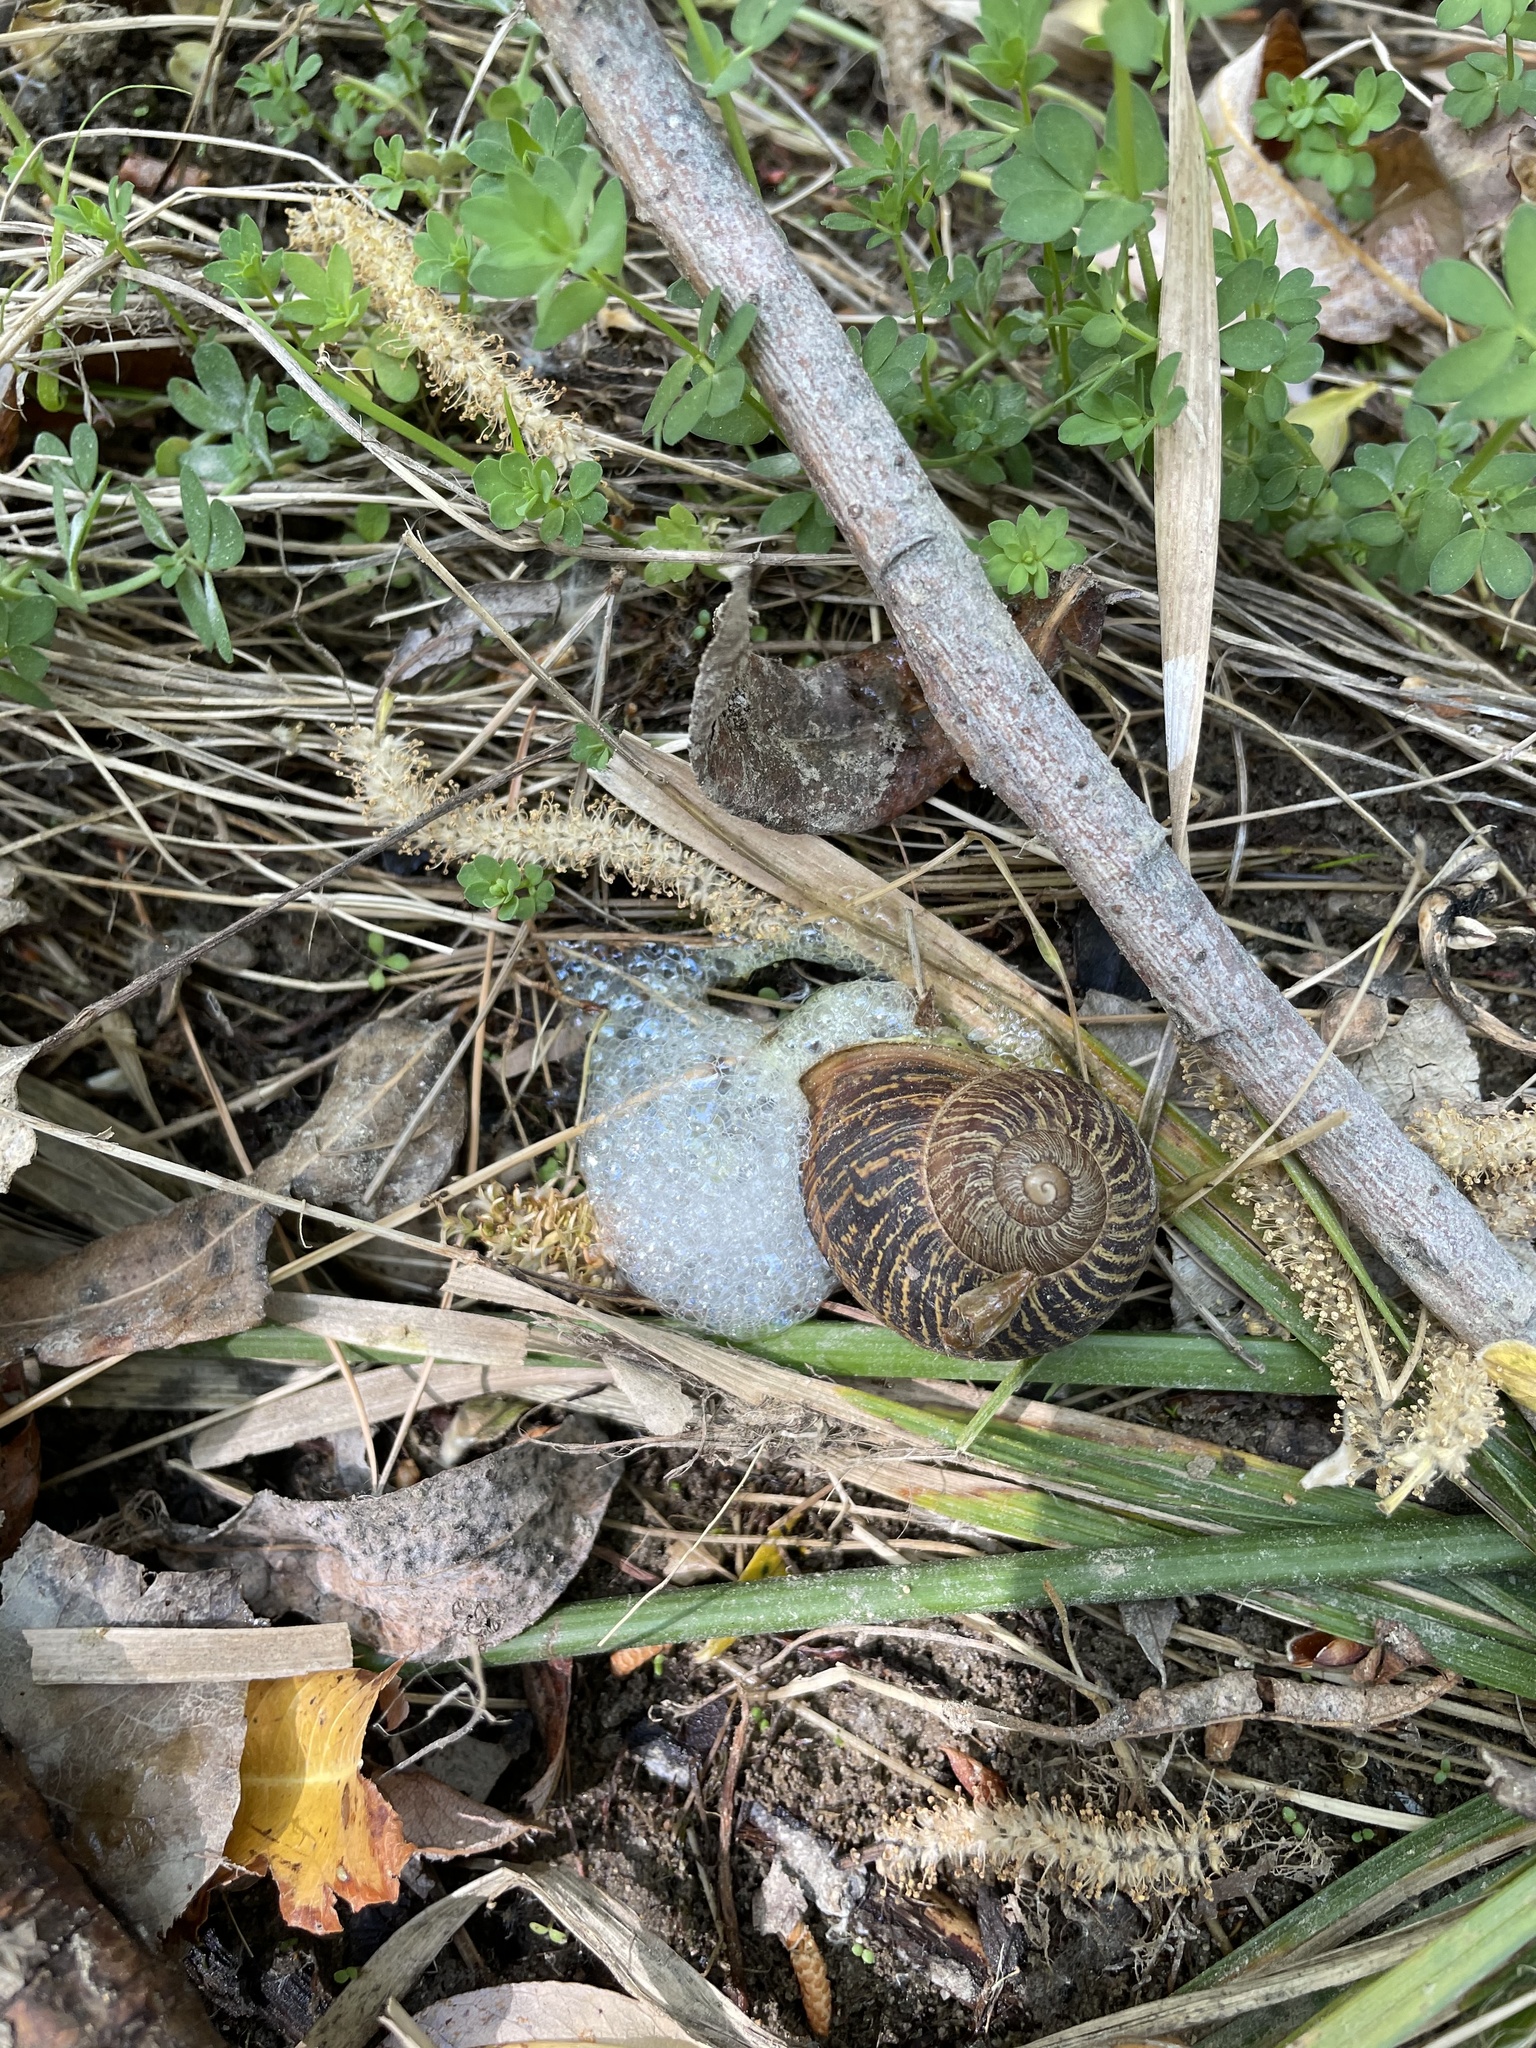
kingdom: Animalia
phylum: Mollusca
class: Gastropoda
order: Stylommatophora
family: Helicidae
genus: Cornu
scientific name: Cornu aspersum
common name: Brown garden snail
